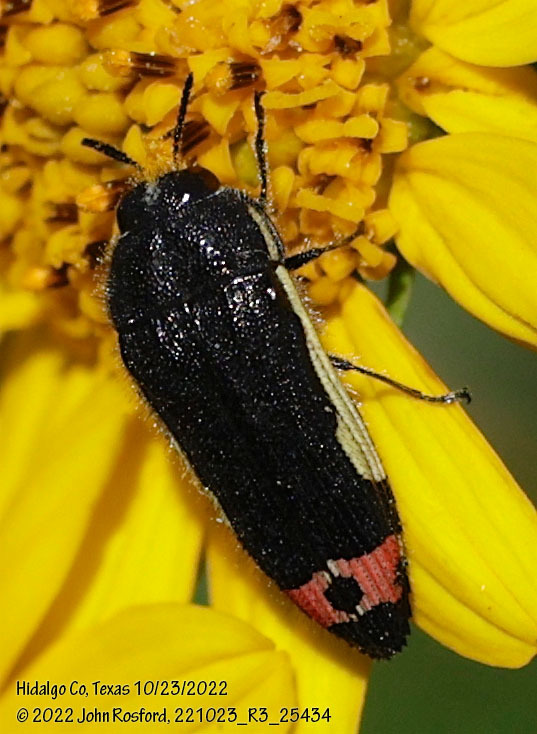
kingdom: Animalia
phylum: Arthropoda
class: Insecta
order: Coleoptera
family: Buprestidae
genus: Acmaeodera
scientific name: Acmaeodera flavomarginata
